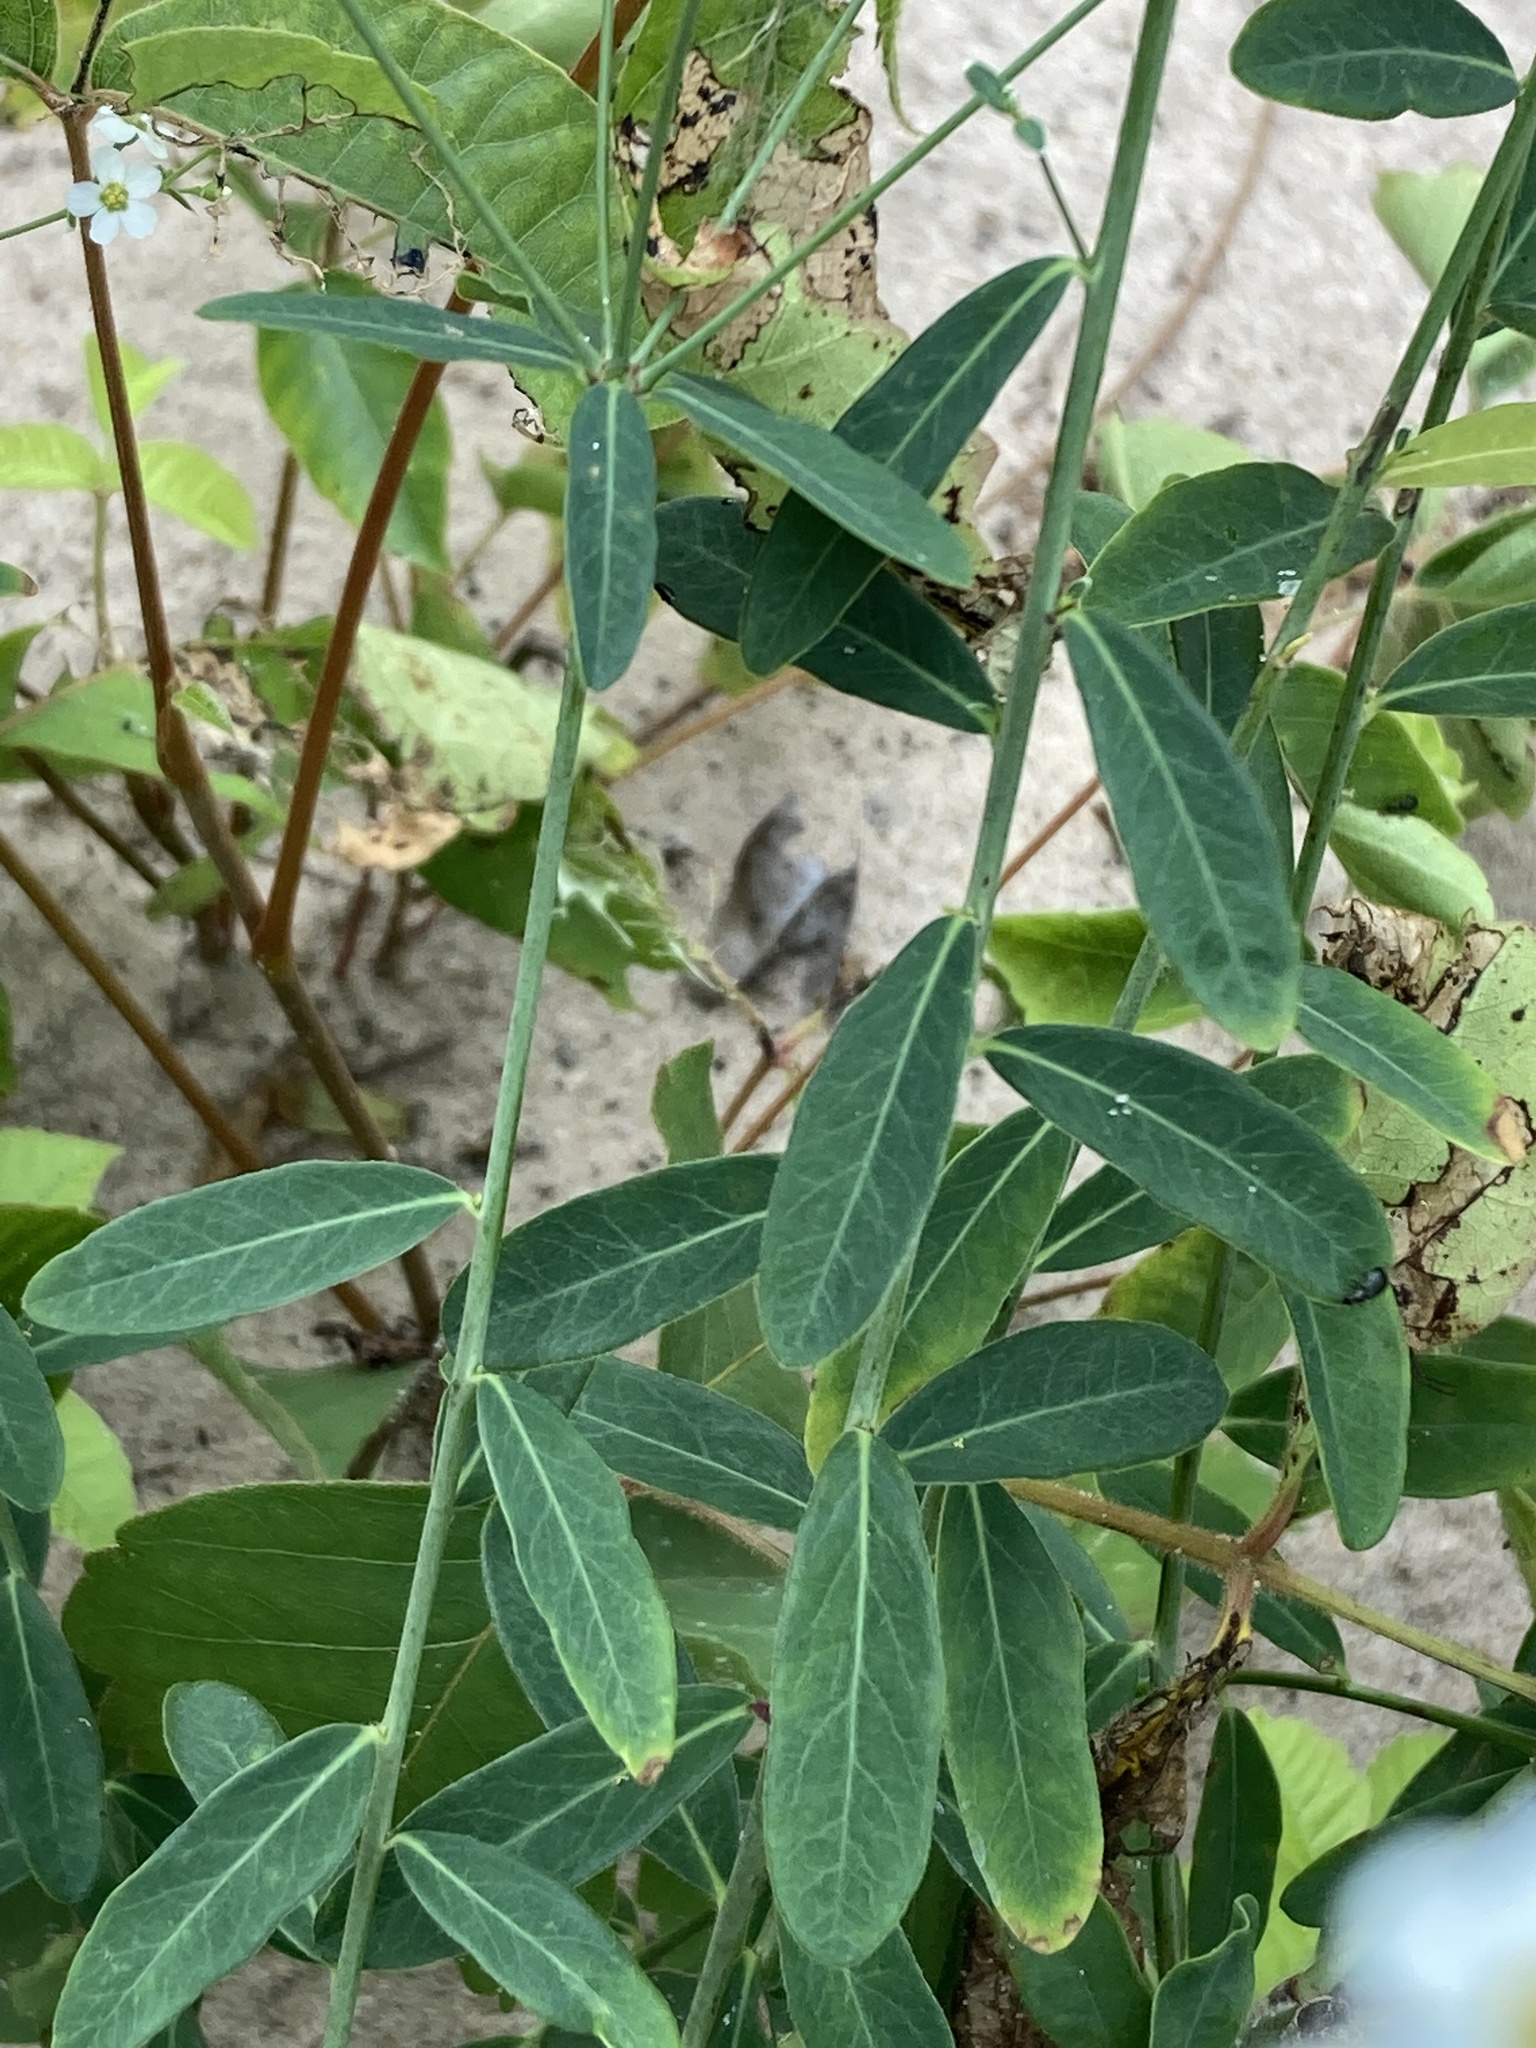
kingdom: Plantae
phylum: Tracheophyta
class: Magnoliopsida
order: Malpighiales
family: Euphorbiaceae
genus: Euphorbia
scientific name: Euphorbia corollata
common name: Flowering spurge
